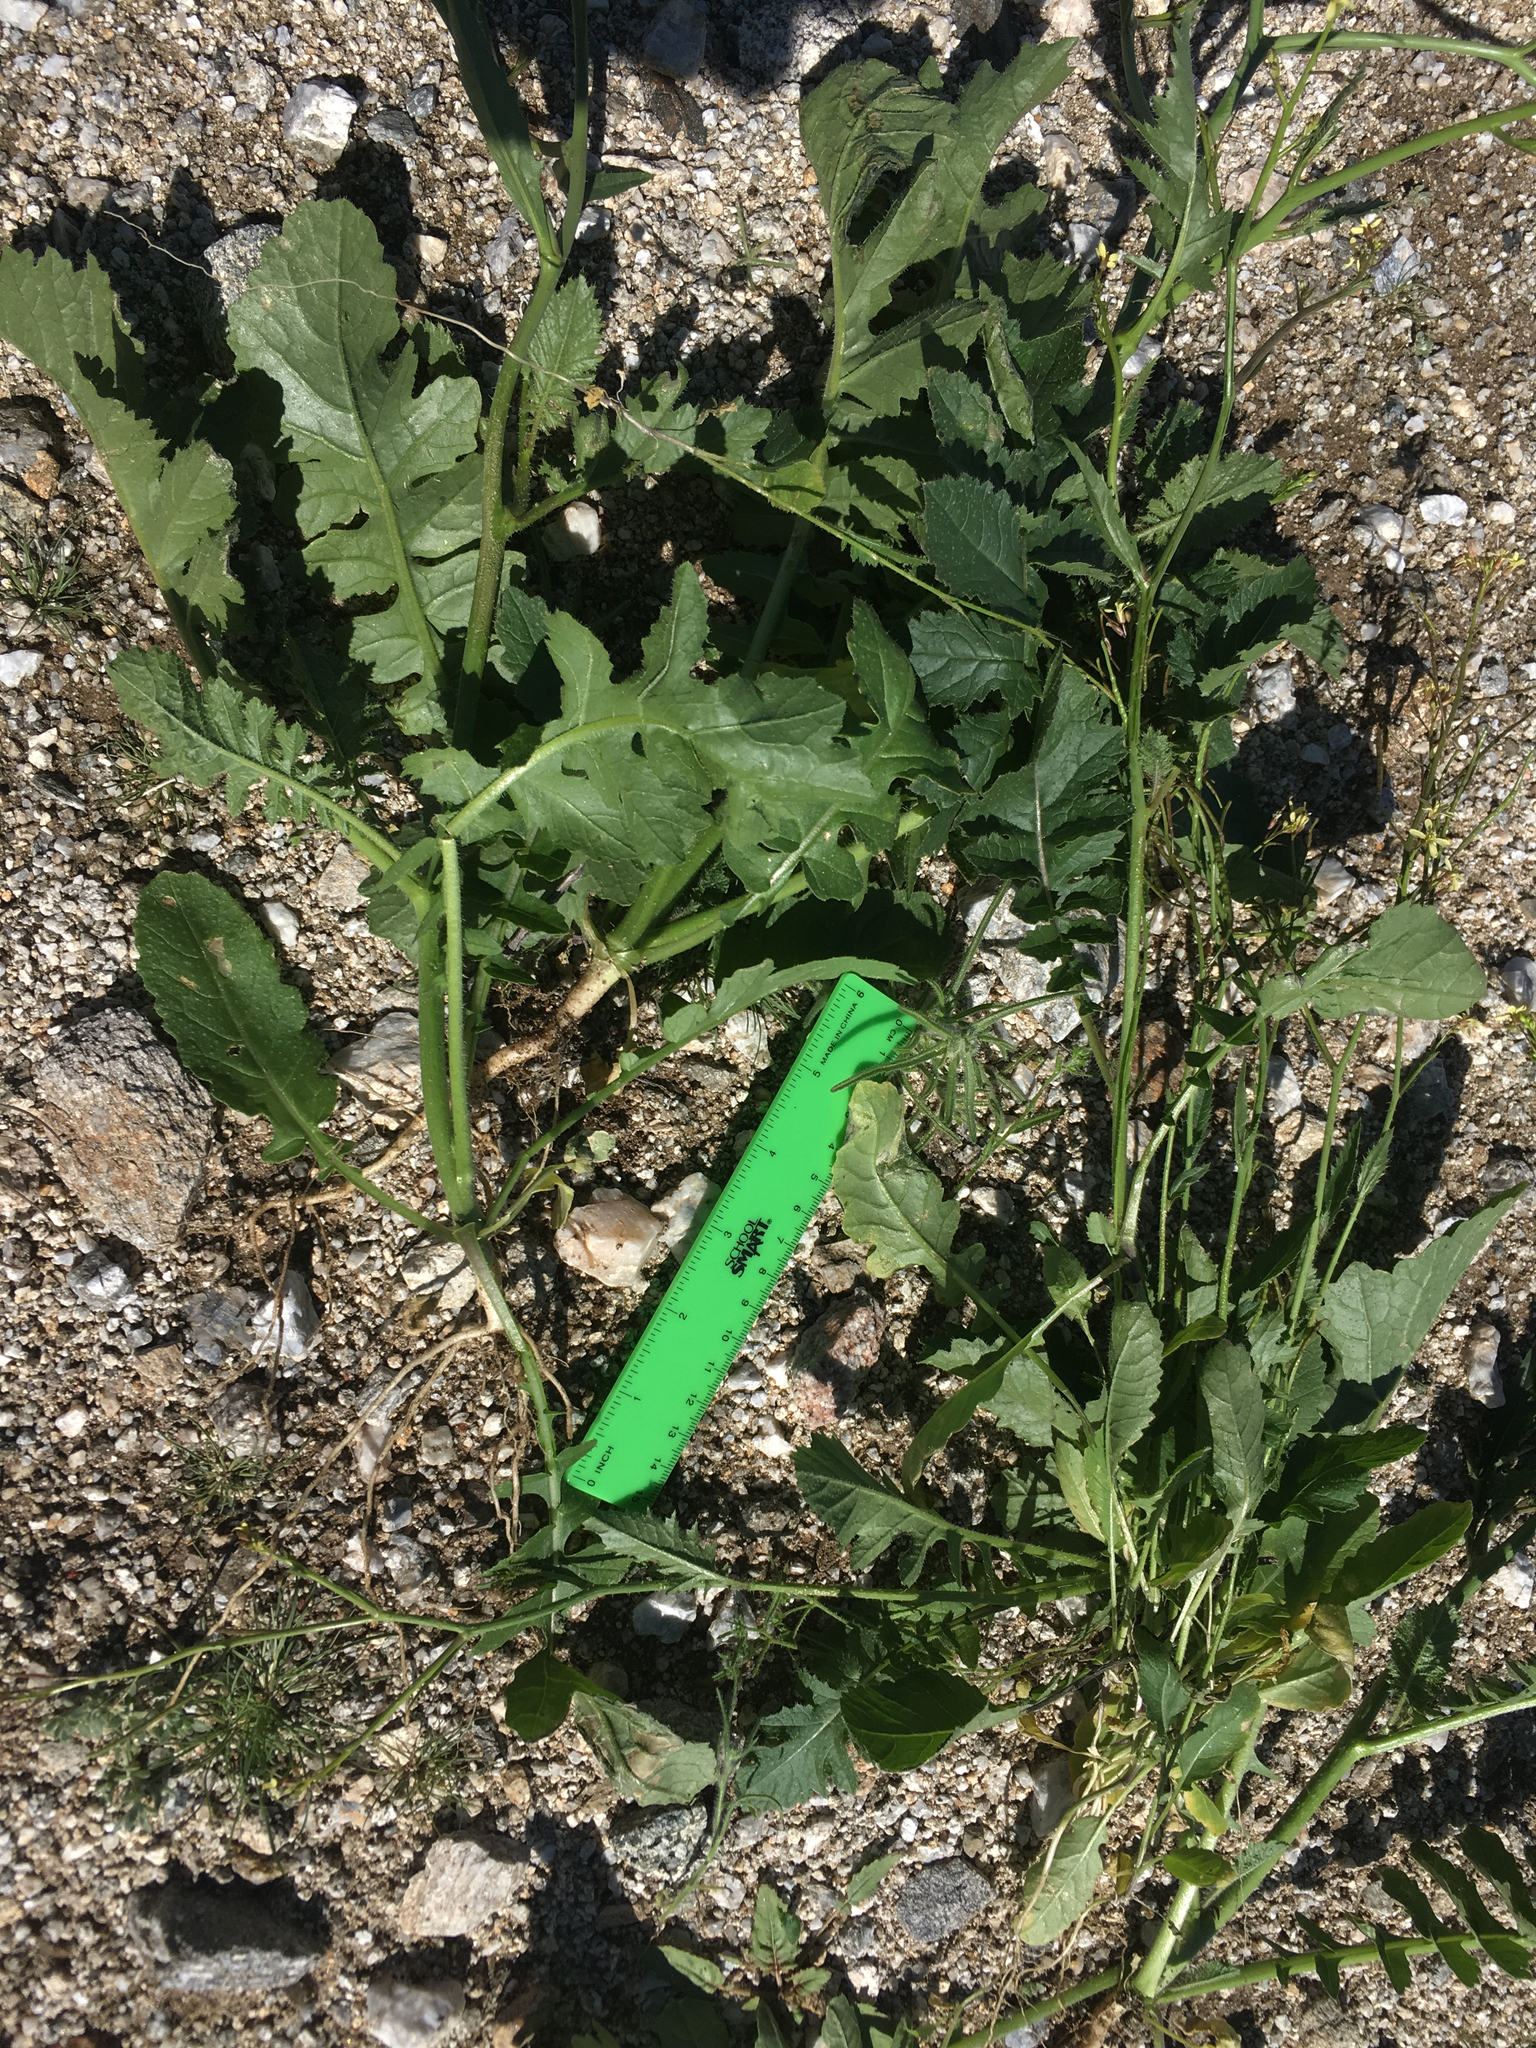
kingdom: Plantae
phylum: Tracheophyta
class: Magnoliopsida
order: Brassicales
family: Brassicaceae
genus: Brassica
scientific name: Brassica tournefortii
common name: Pale cabbage
